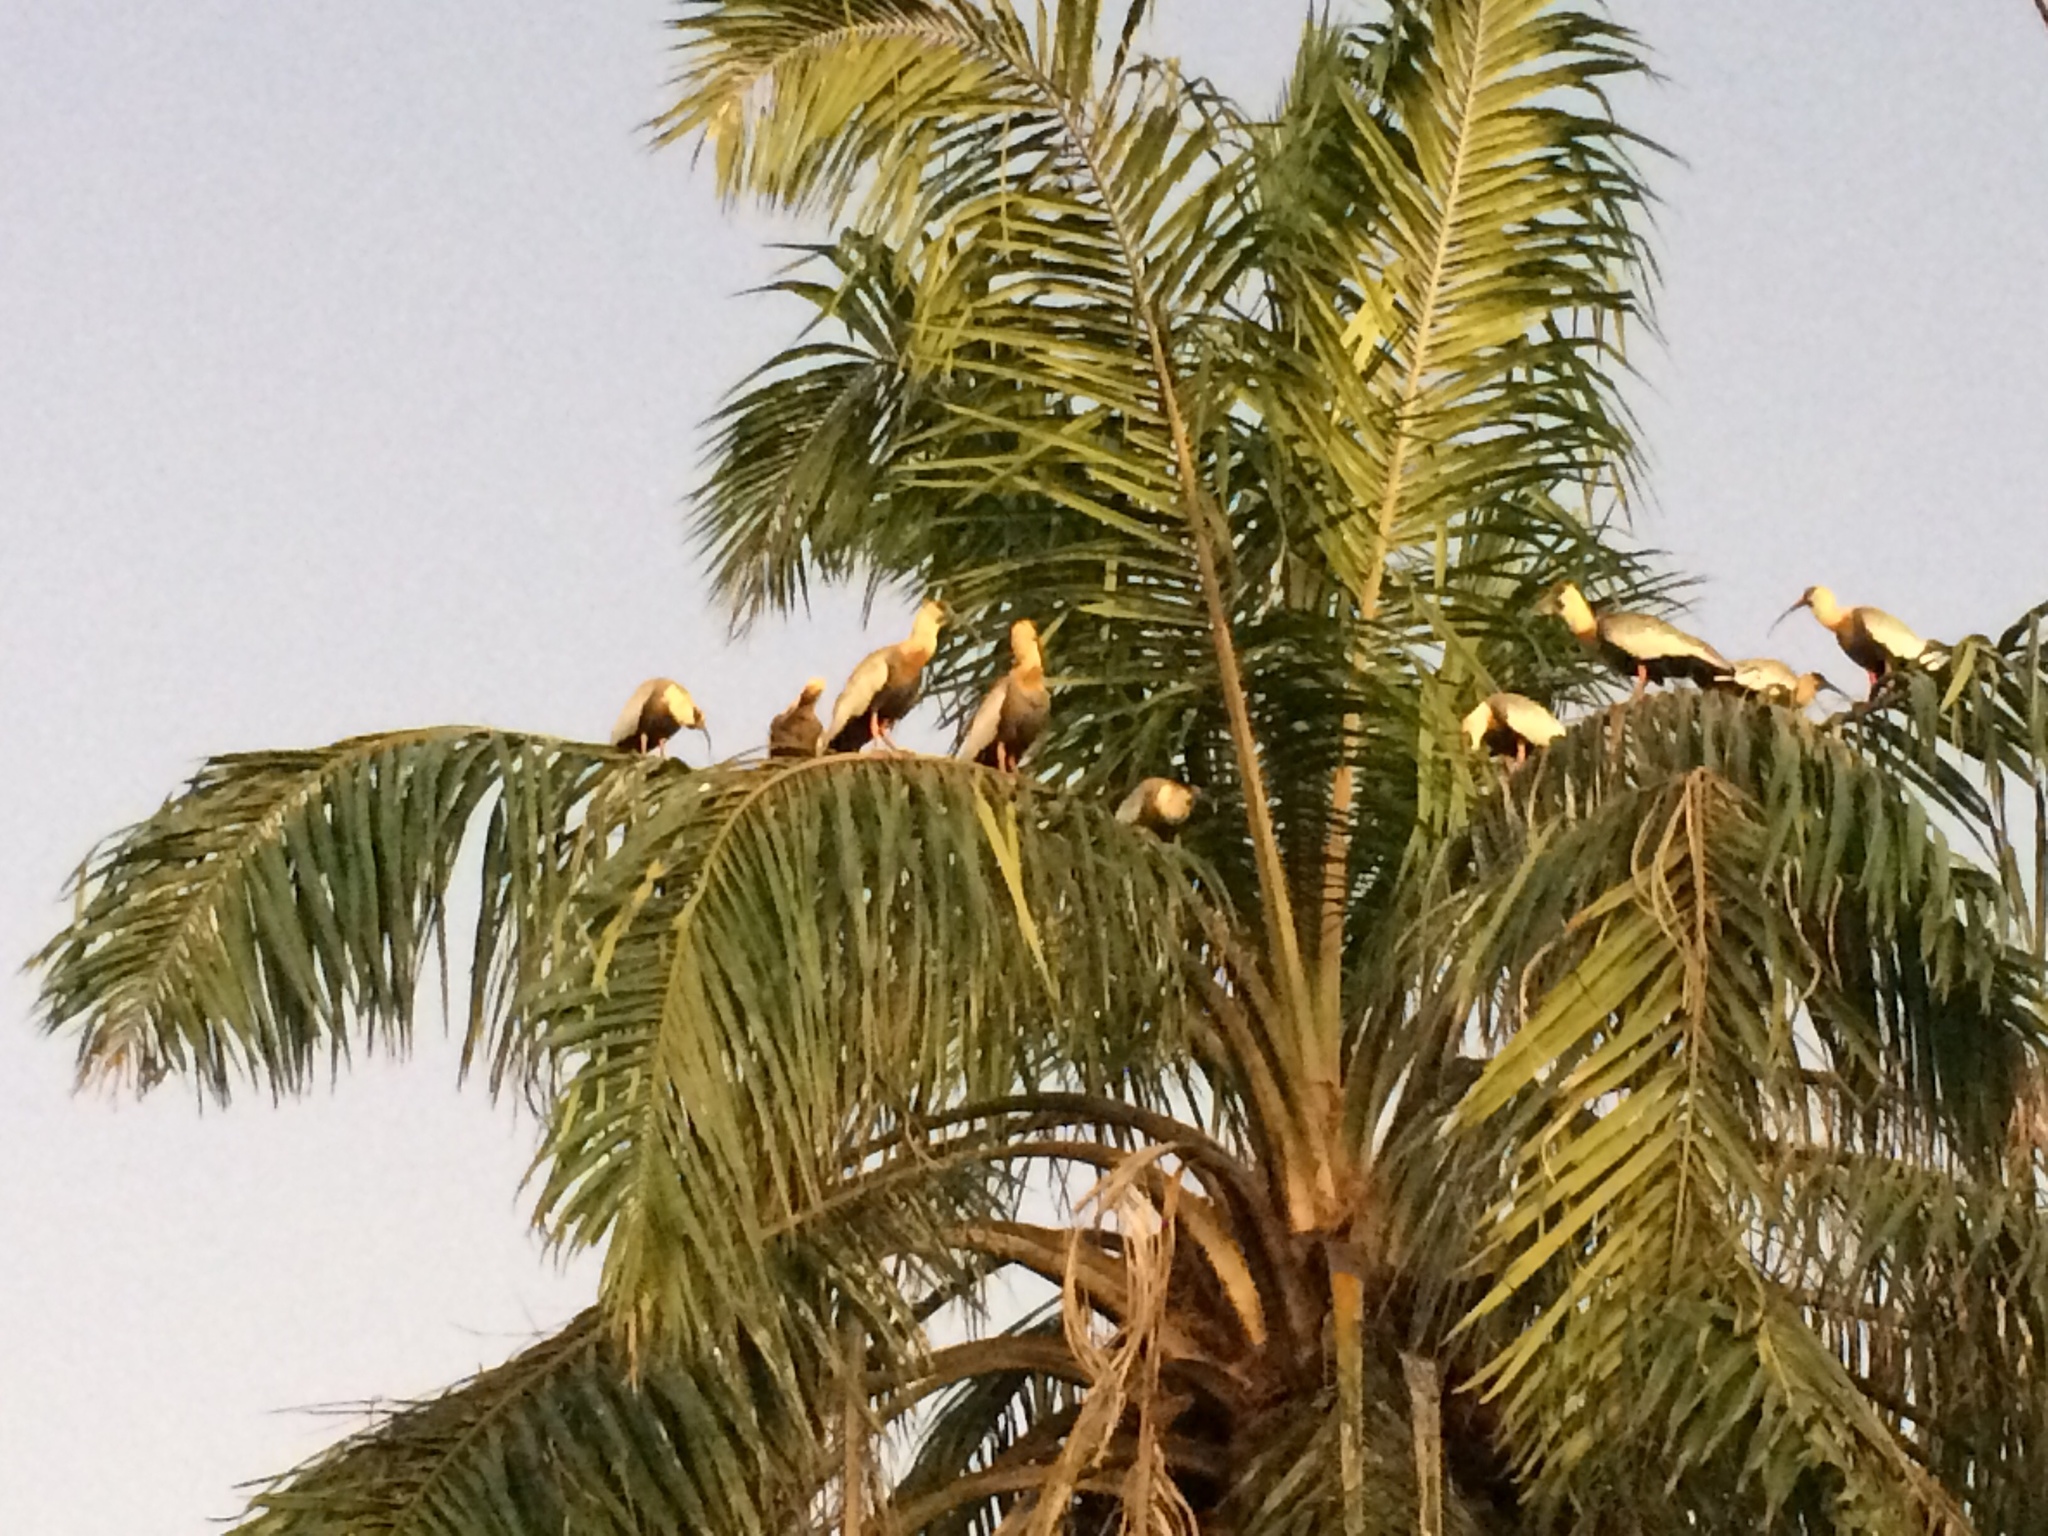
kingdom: Animalia
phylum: Chordata
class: Aves
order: Pelecaniformes
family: Threskiornithidae
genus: Theristicus
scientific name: Theristicus caudatus
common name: Buff-necked ibis
